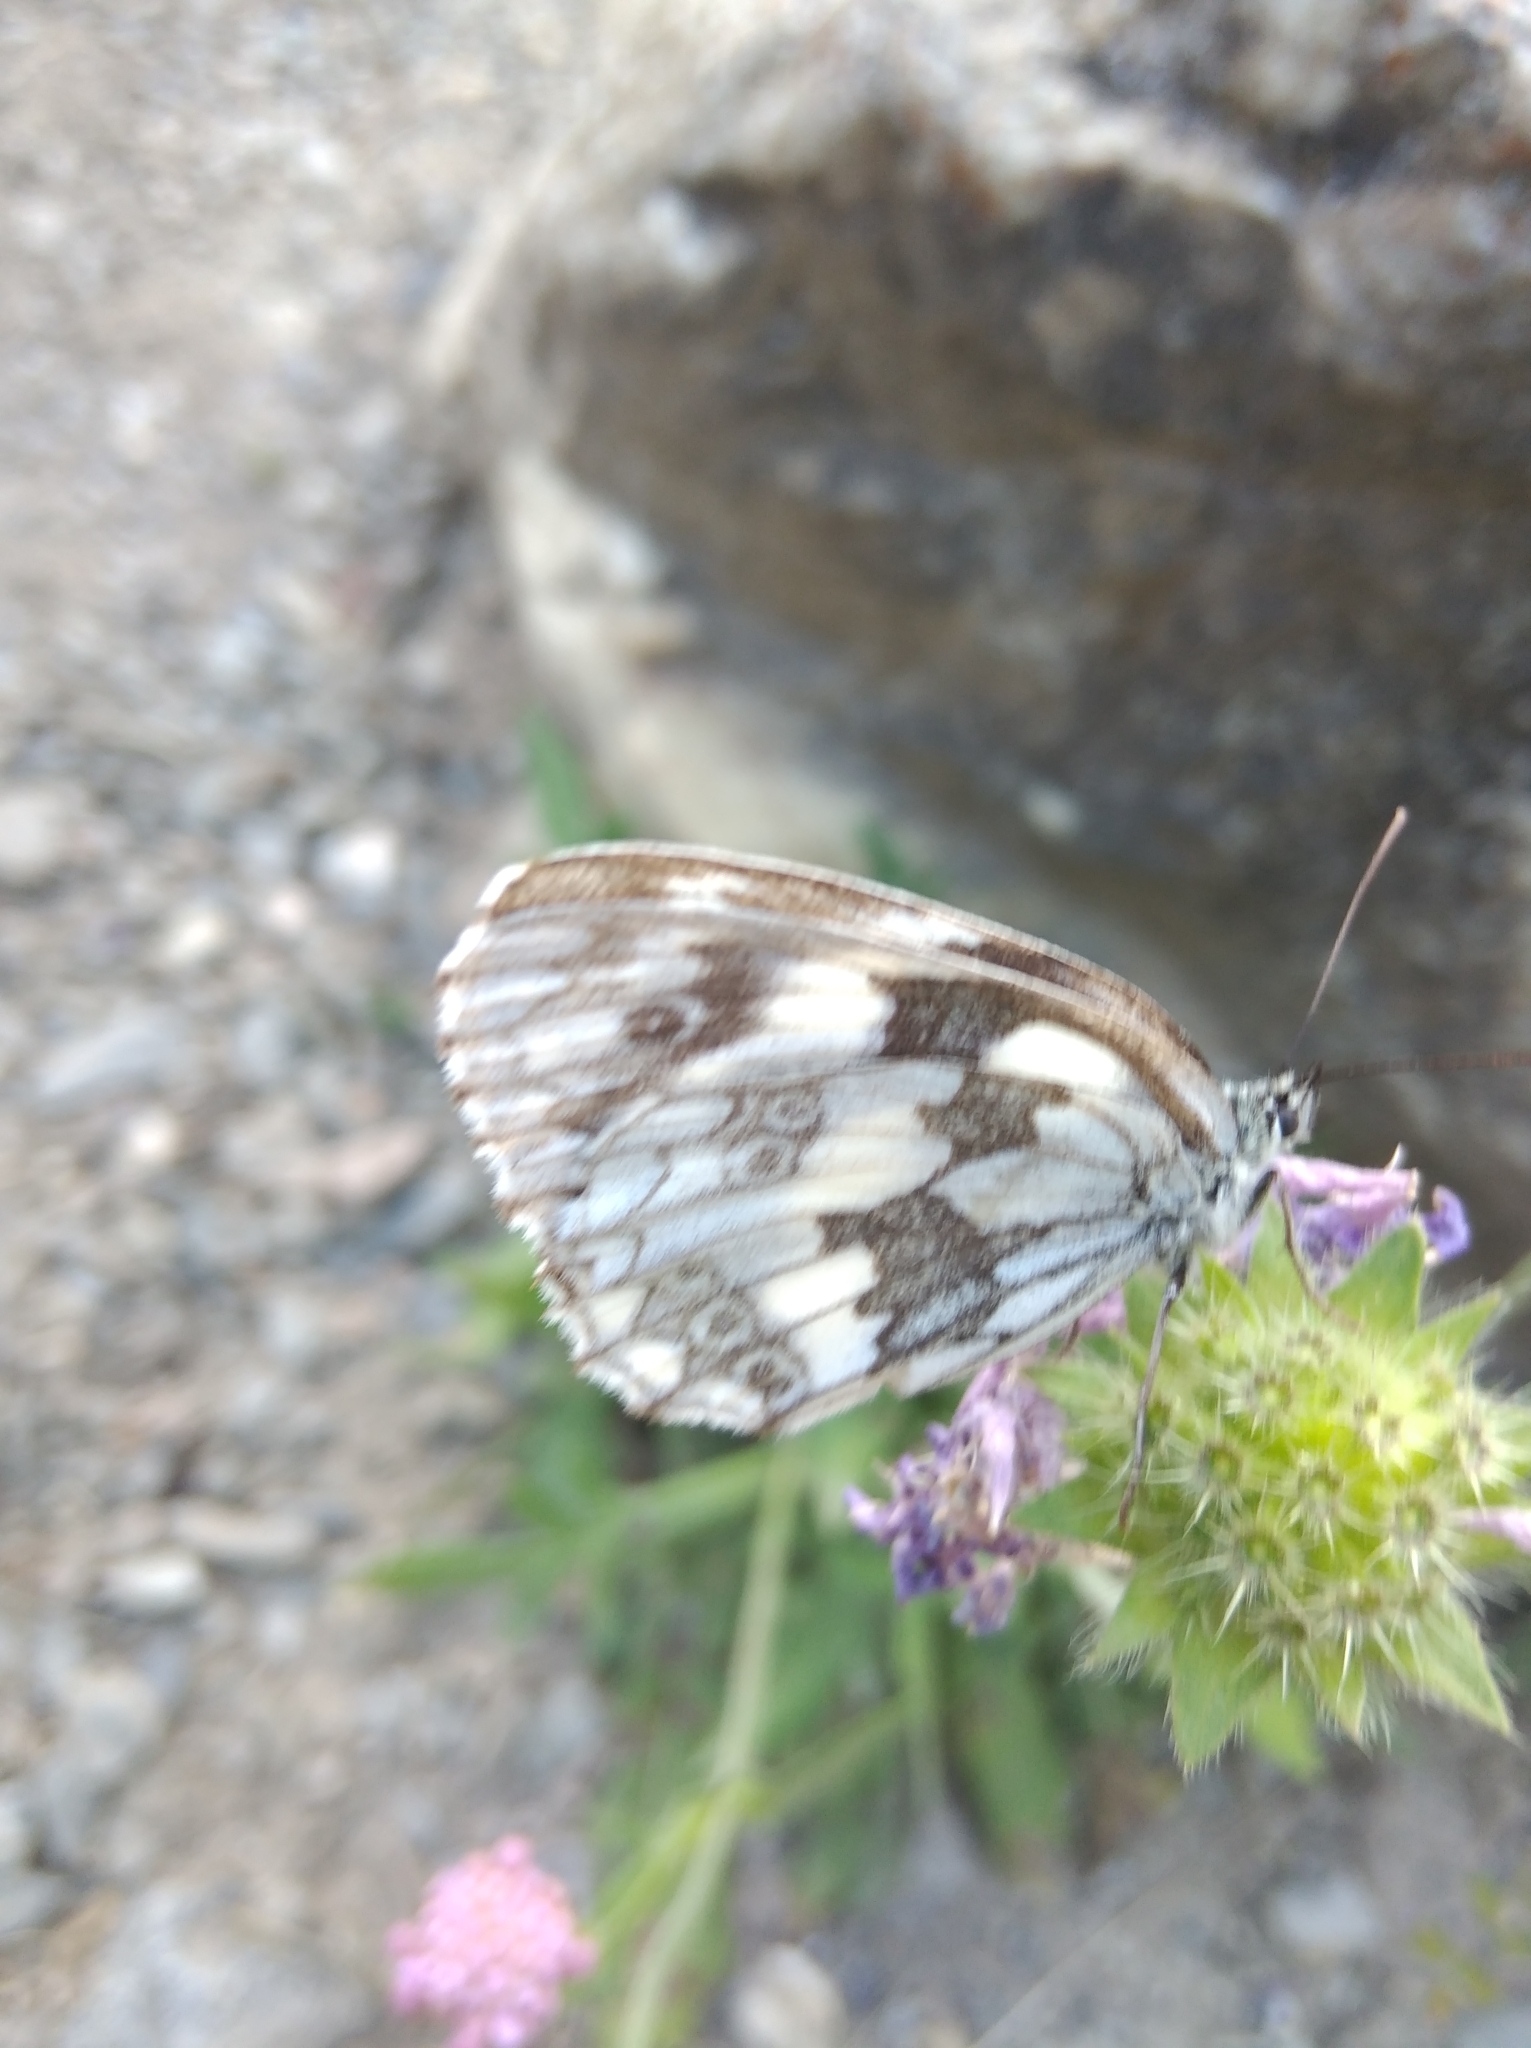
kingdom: Animalia
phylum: Arthropoda
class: Insecta
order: Lepidoptera
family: Nymphalidae
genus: Melanargia
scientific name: Melanargia galathea
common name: Marbled white
